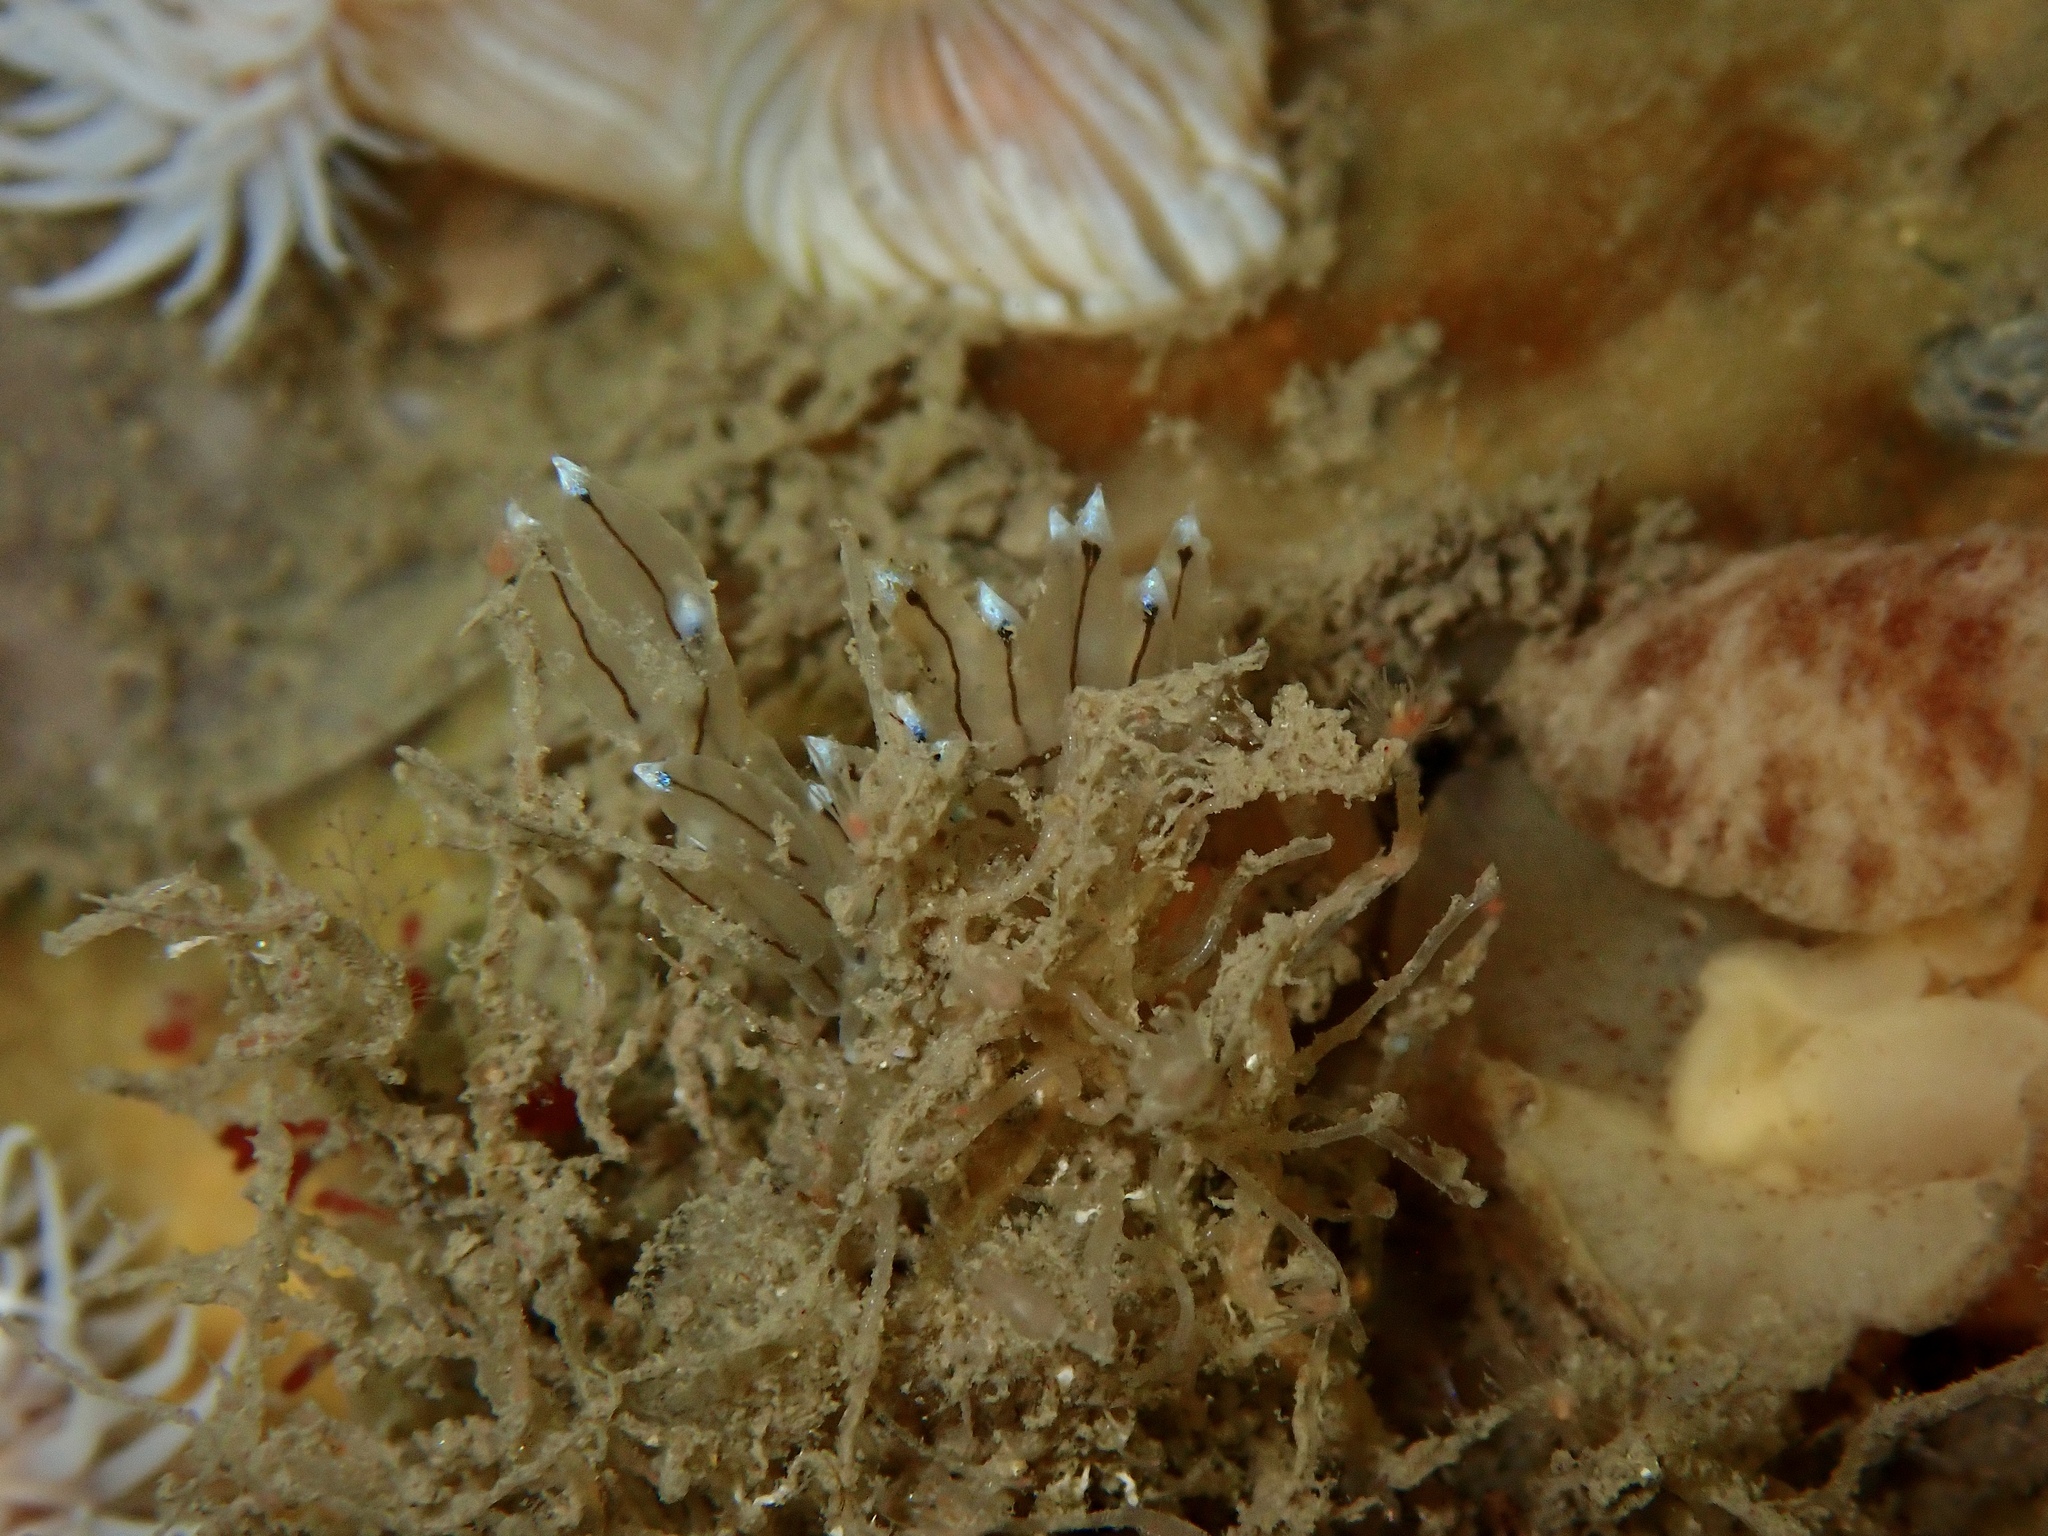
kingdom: Animalia
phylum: Mollusca
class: Gastropoda
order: Nudibranchia
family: Janolidae
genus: Antiopella
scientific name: Antiopella cristata
